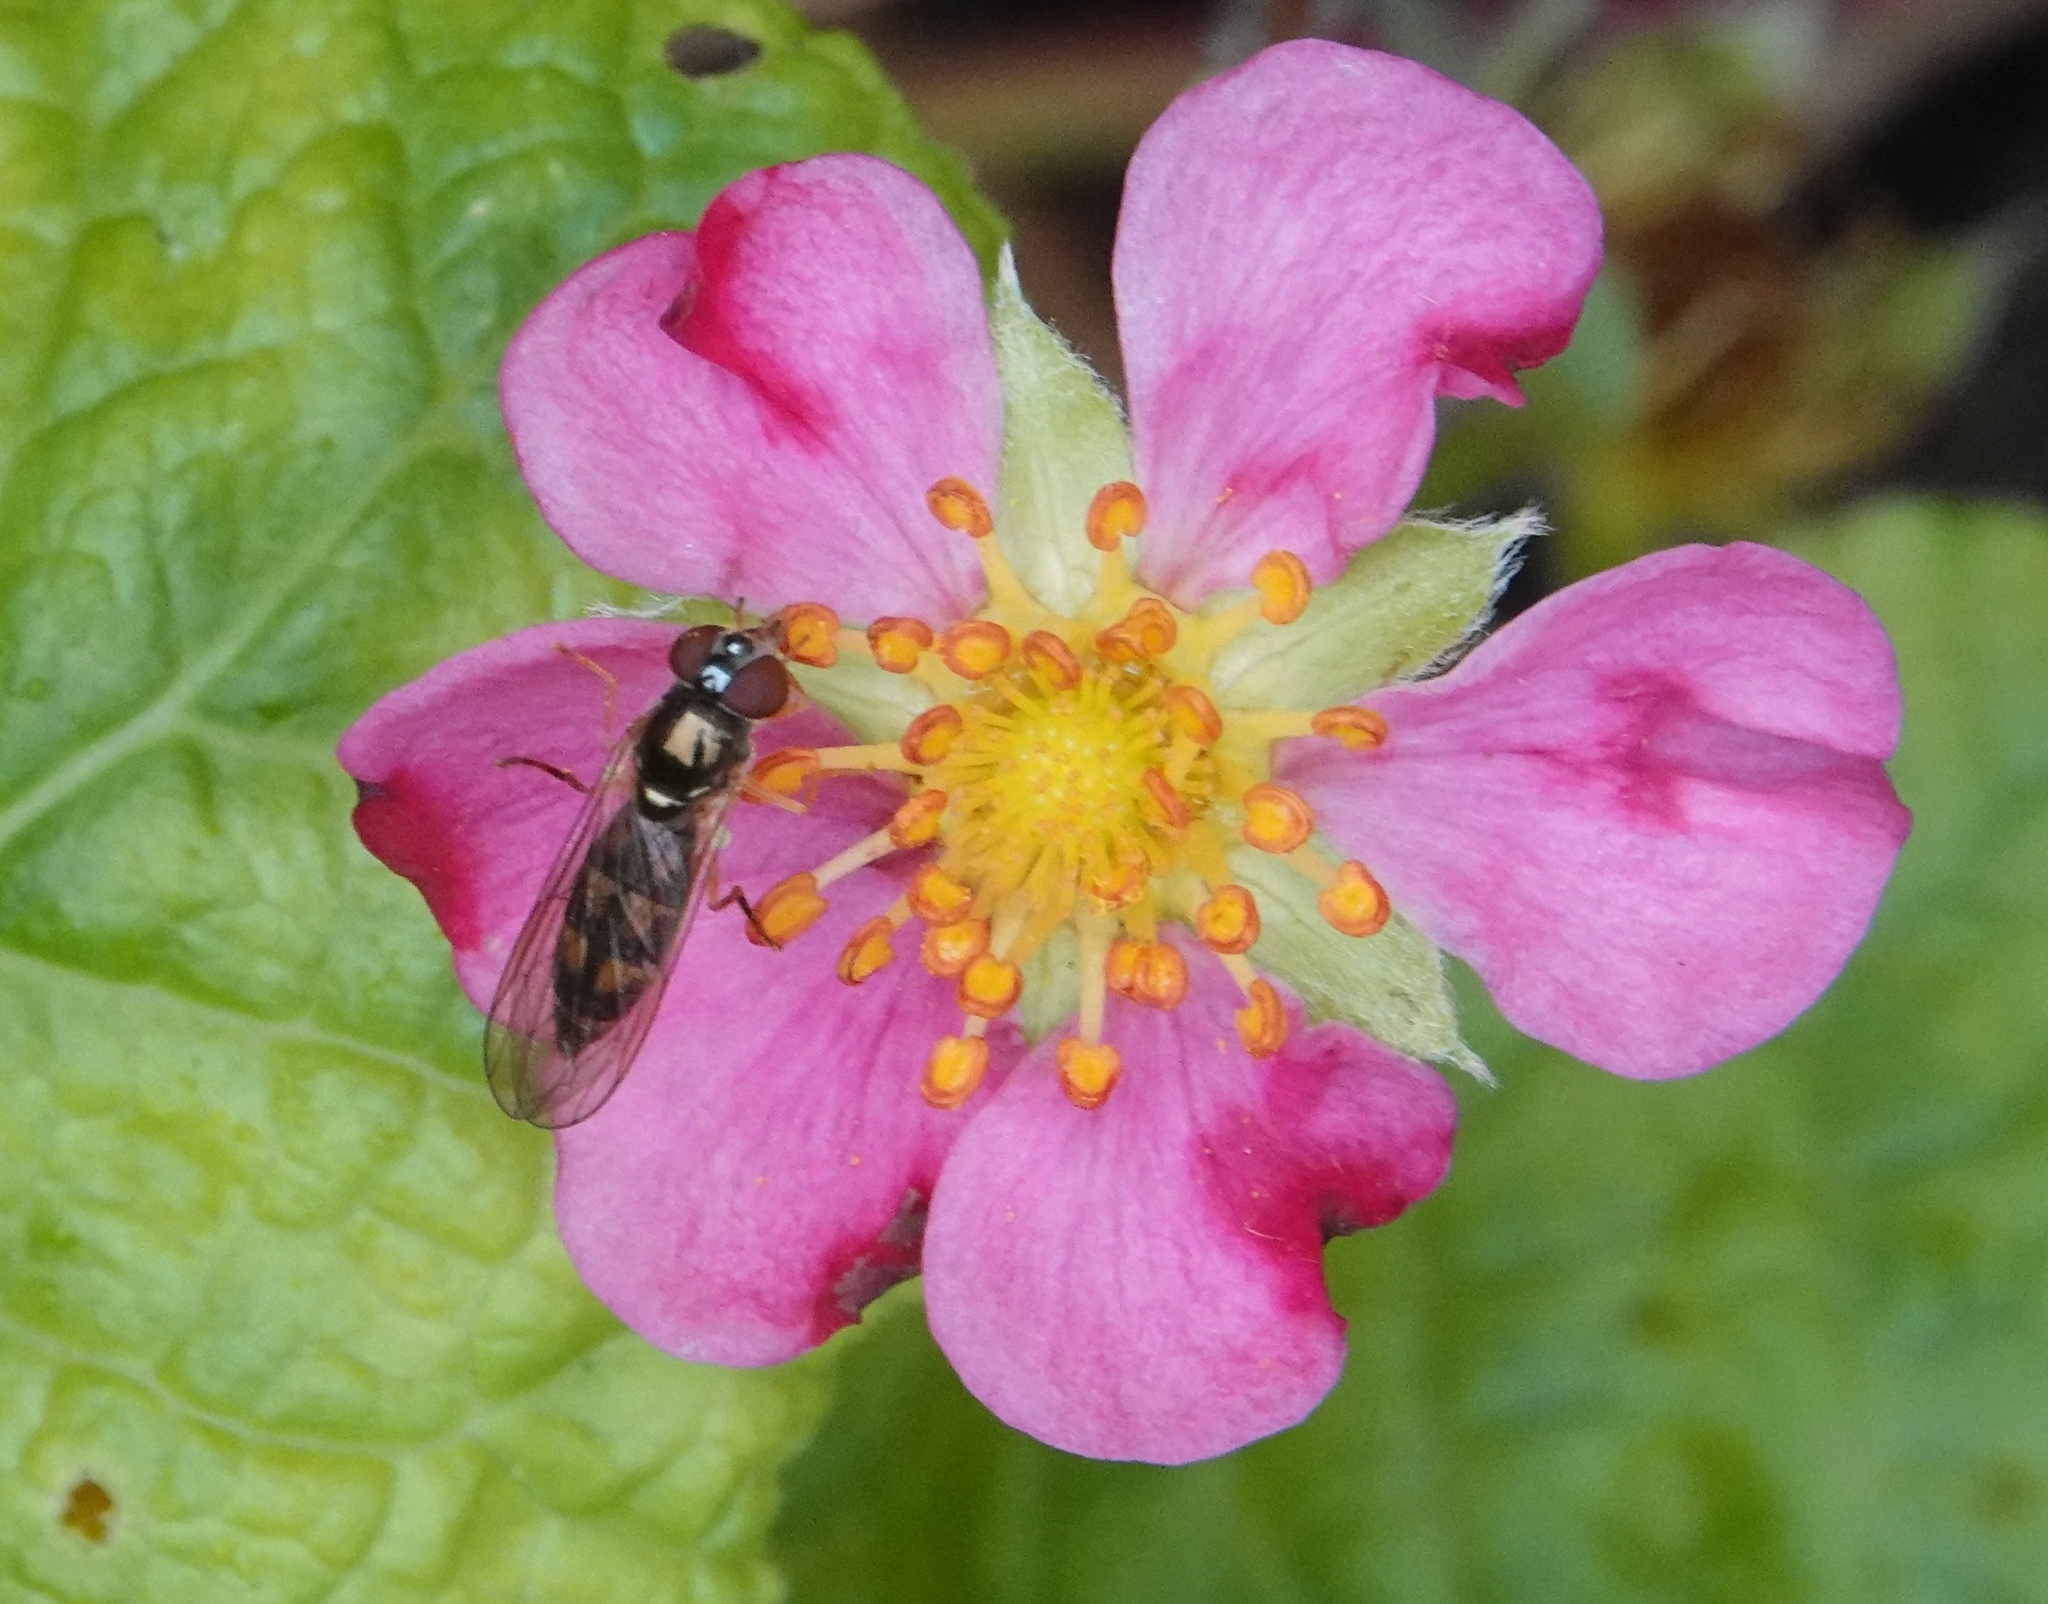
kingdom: Animalia
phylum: Arthropoda
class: Insecta
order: Diptera
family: Syrphidae
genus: Melanostoma
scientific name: Melanostoma scalare
